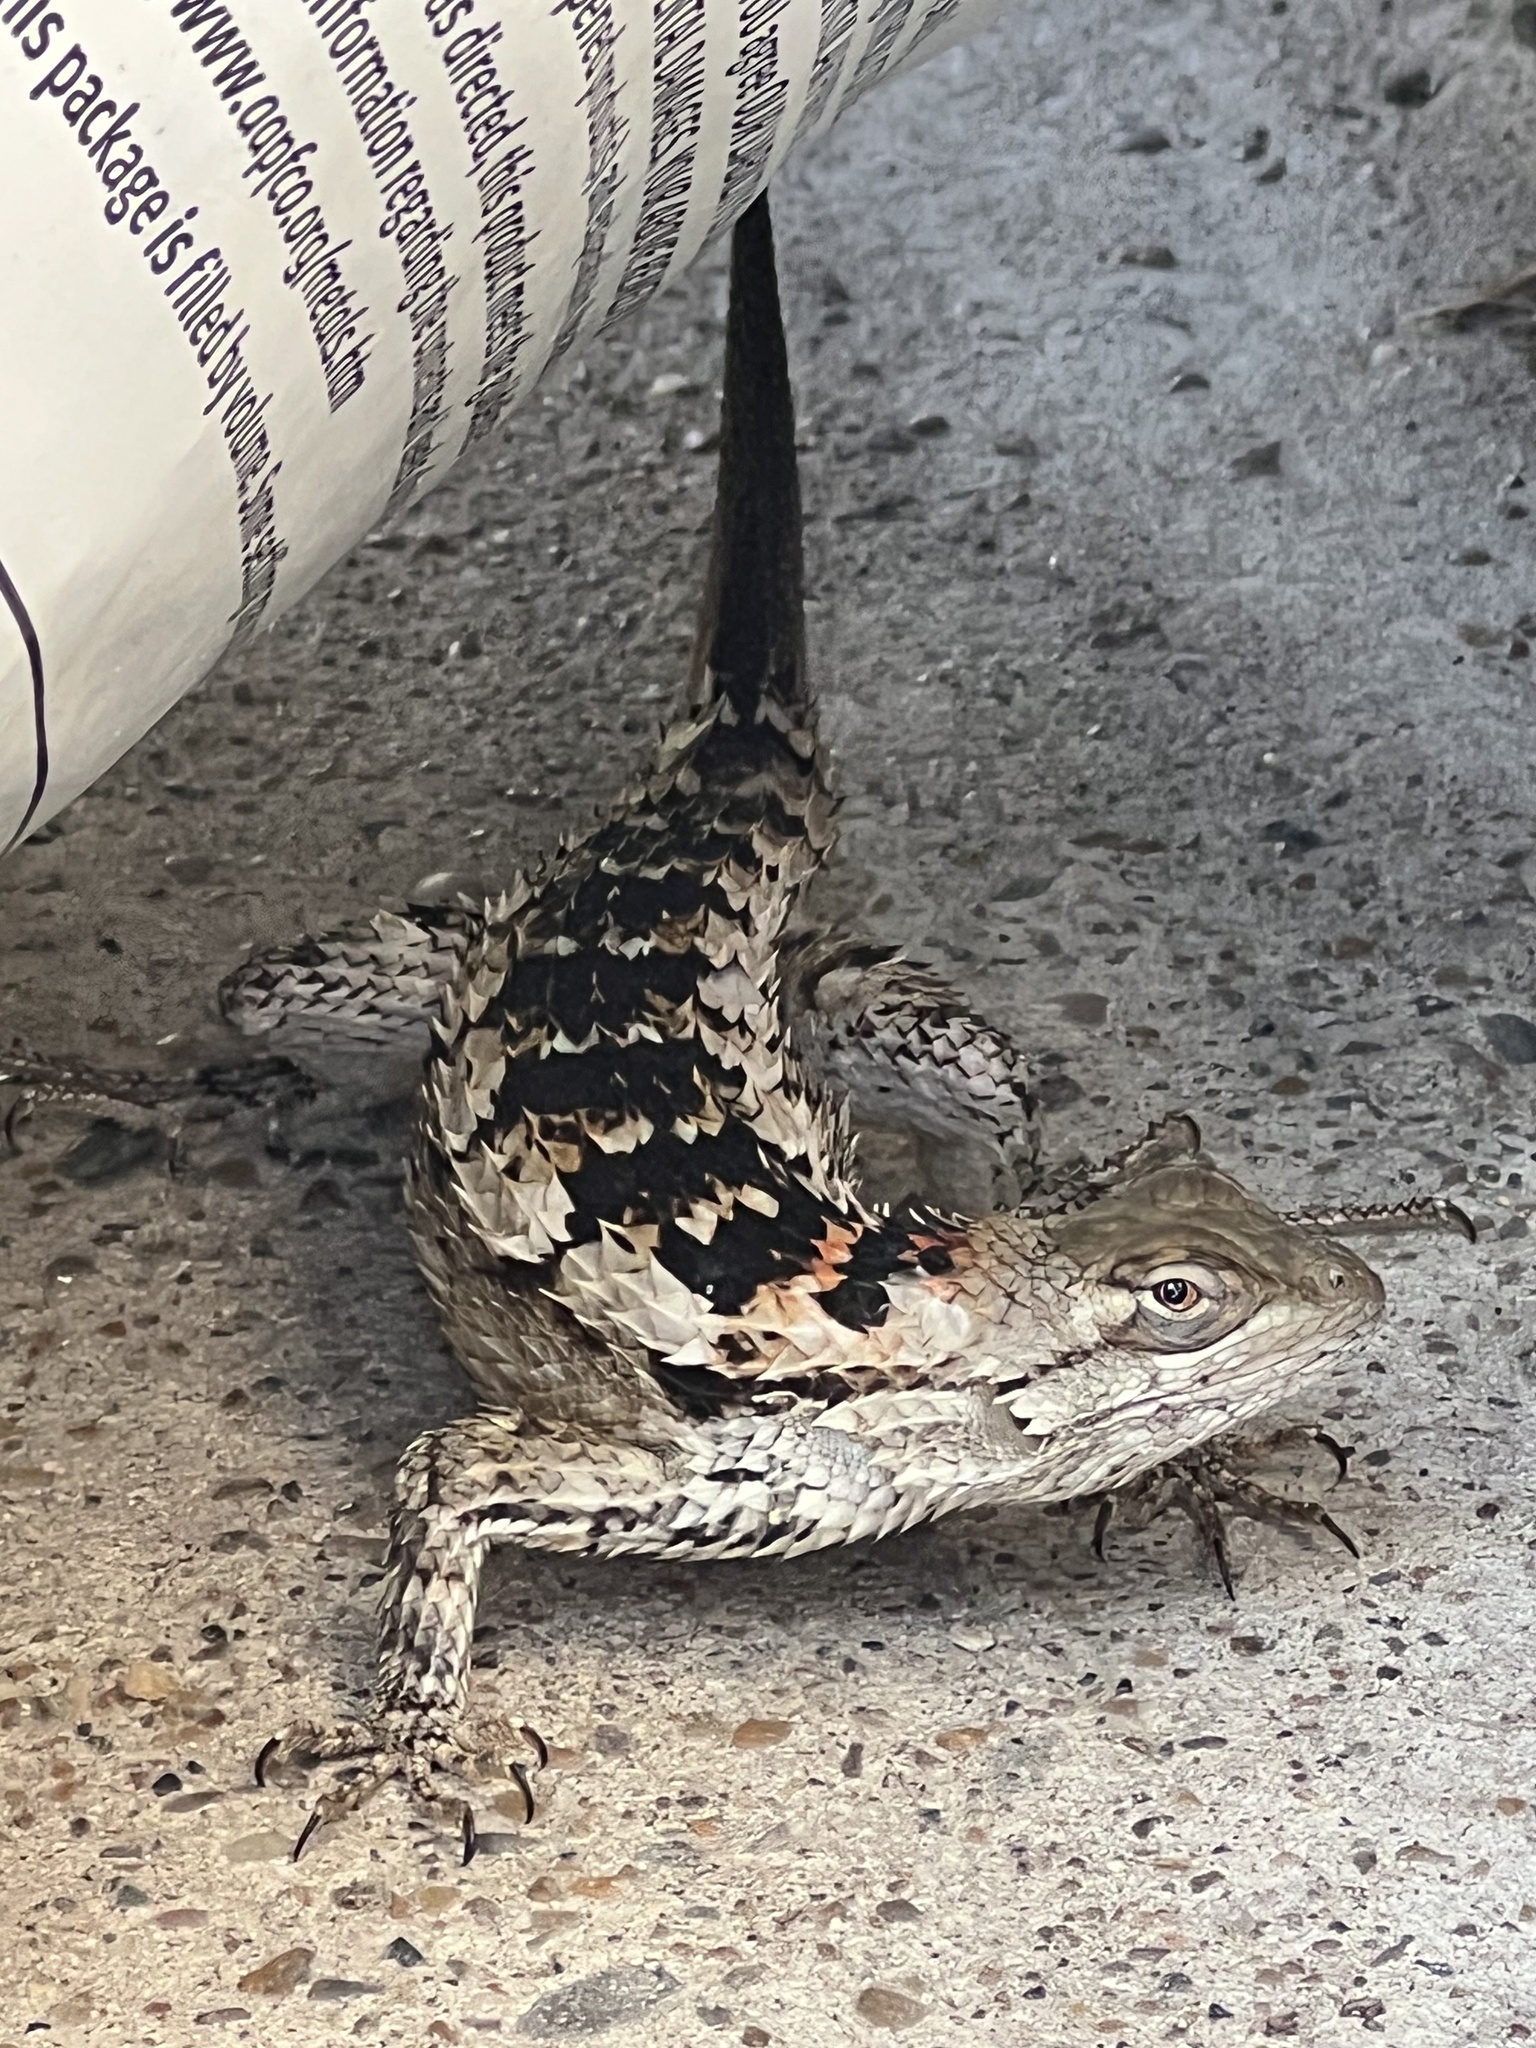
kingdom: Animalia
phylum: Chordata
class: Squamata
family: Phrynosomatidae
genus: Sceloporus
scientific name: Sceloporus olivaceus
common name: Texas spiny lizard
